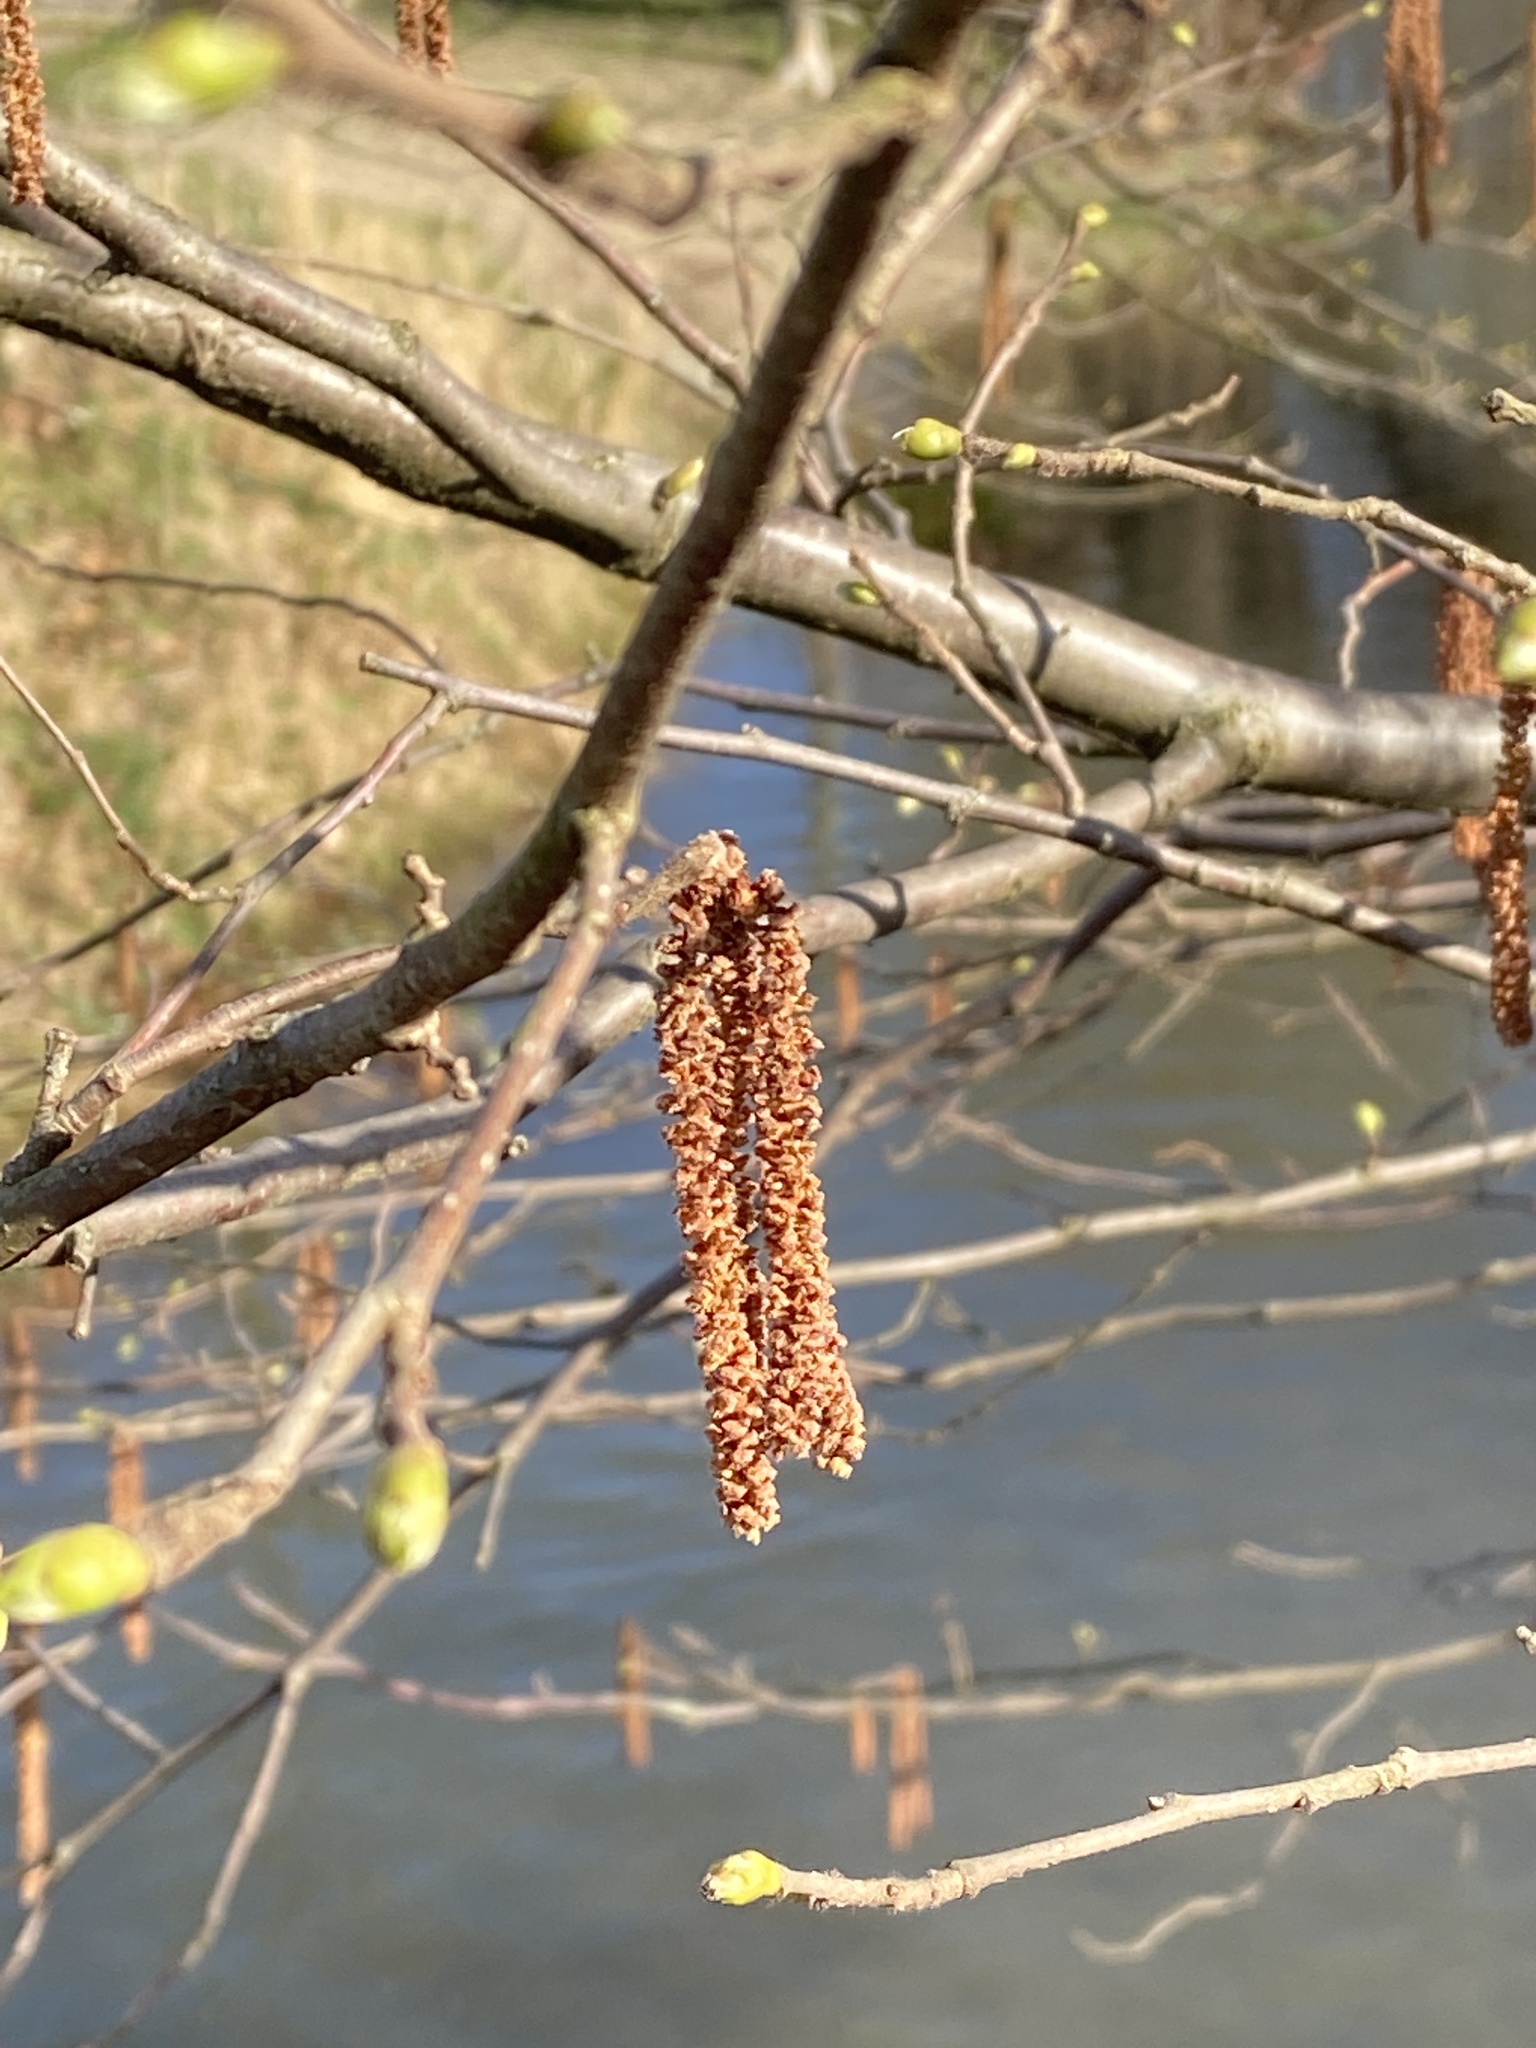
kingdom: Plantae
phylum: Tracheophyta
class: Magnoliopsida
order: Fagales
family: Betulaceae
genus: Corylus
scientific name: Corylus avellana
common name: European hazel
